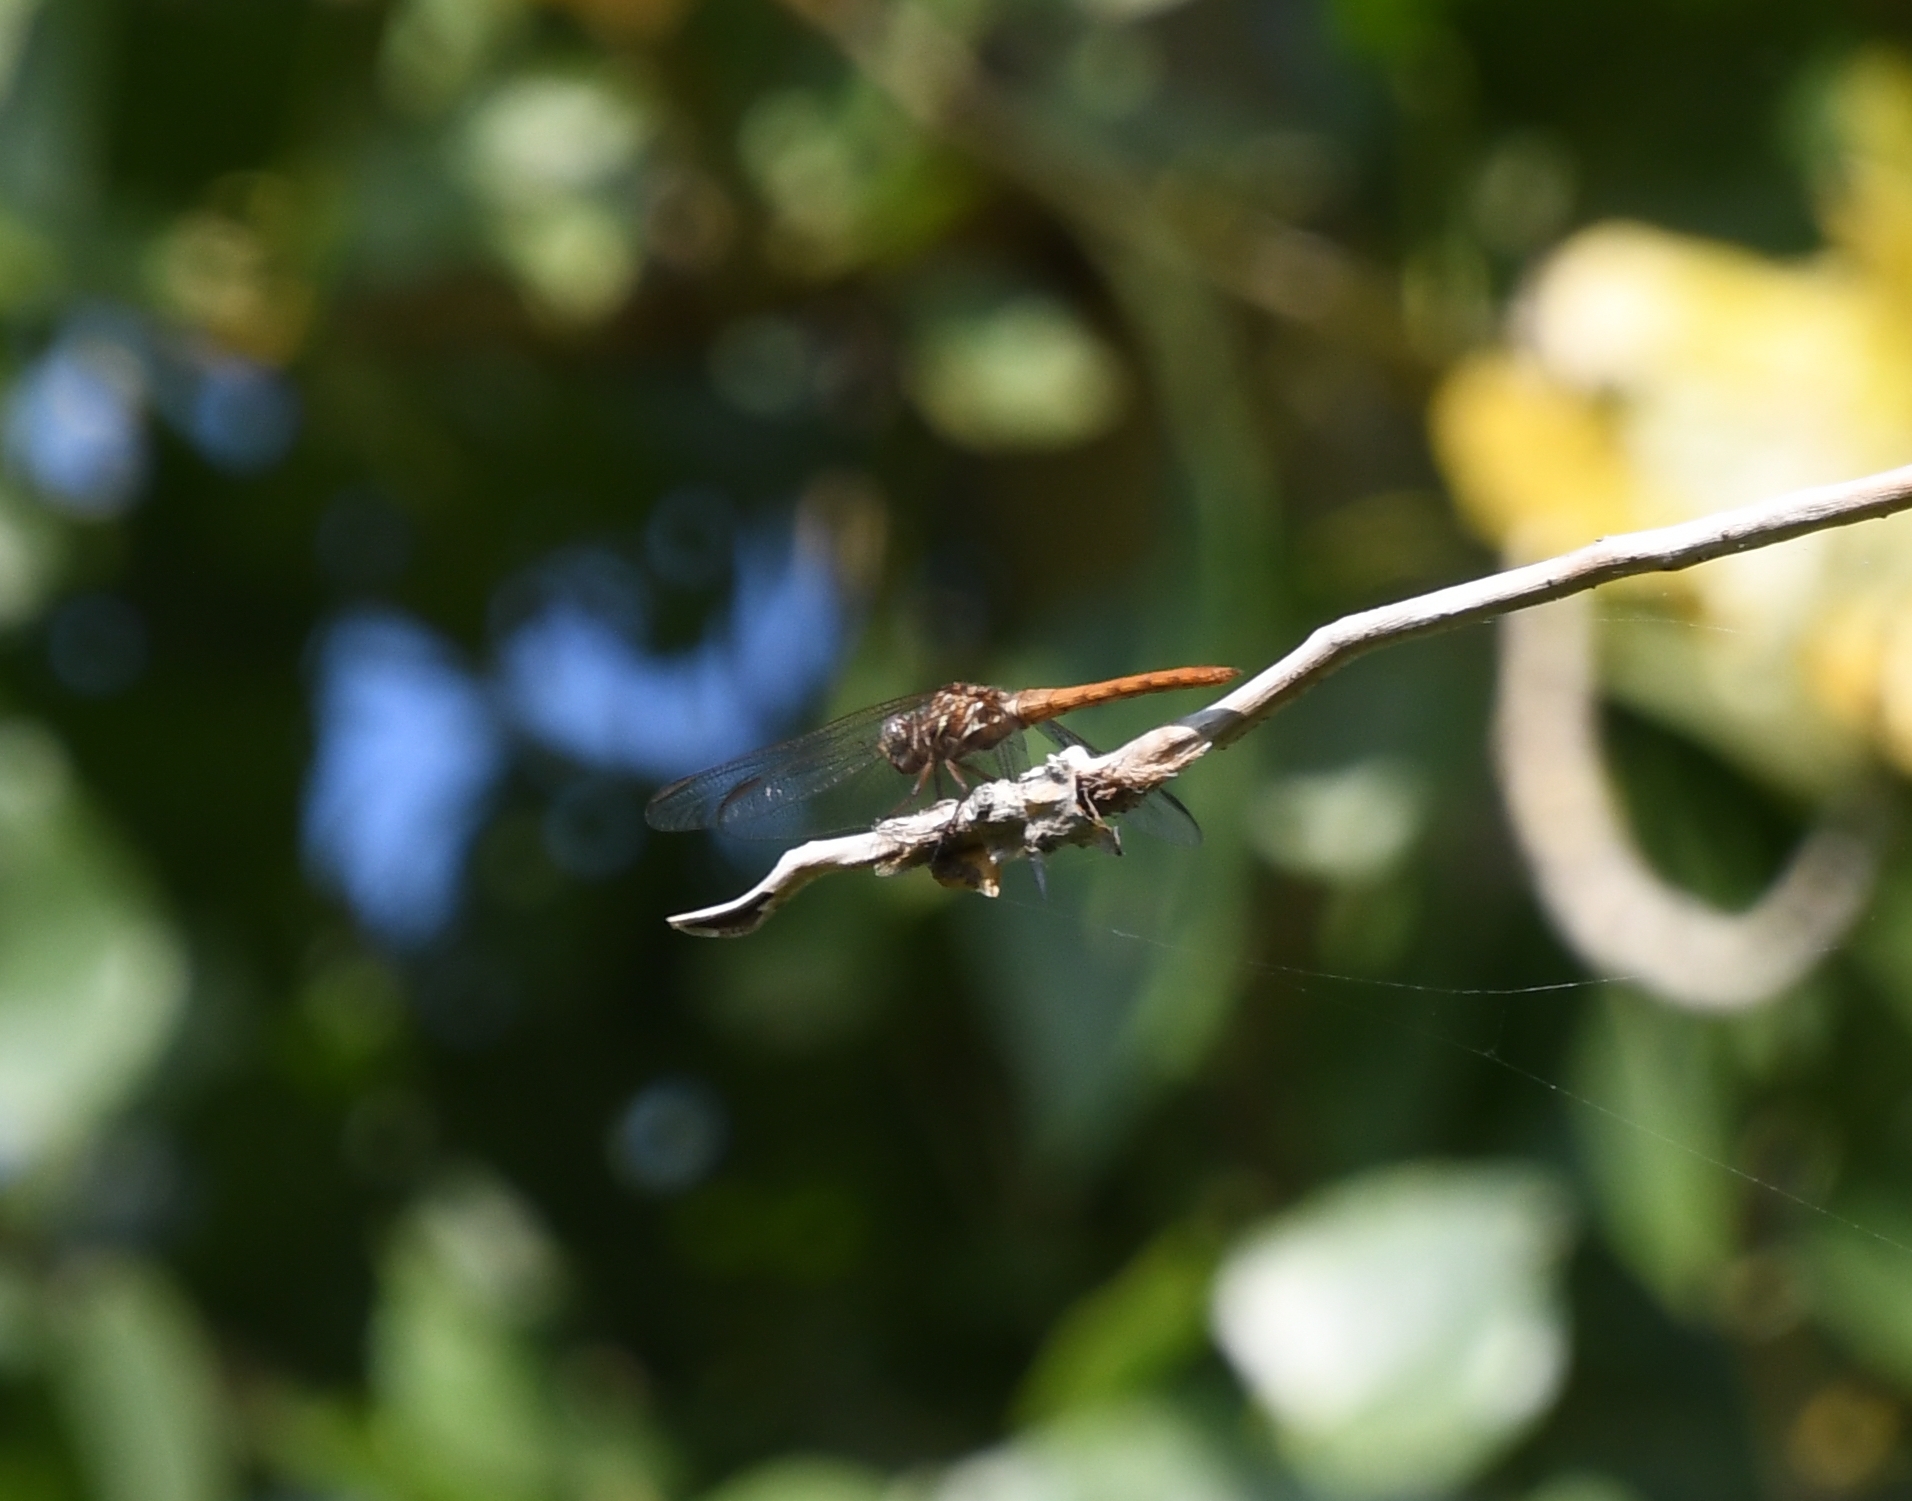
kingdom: Animalia
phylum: Arthropoda
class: Insecta
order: Odonata
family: Libellulidae
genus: Orthemis
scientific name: Orthemis ferruginea
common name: Roseate skimmer
